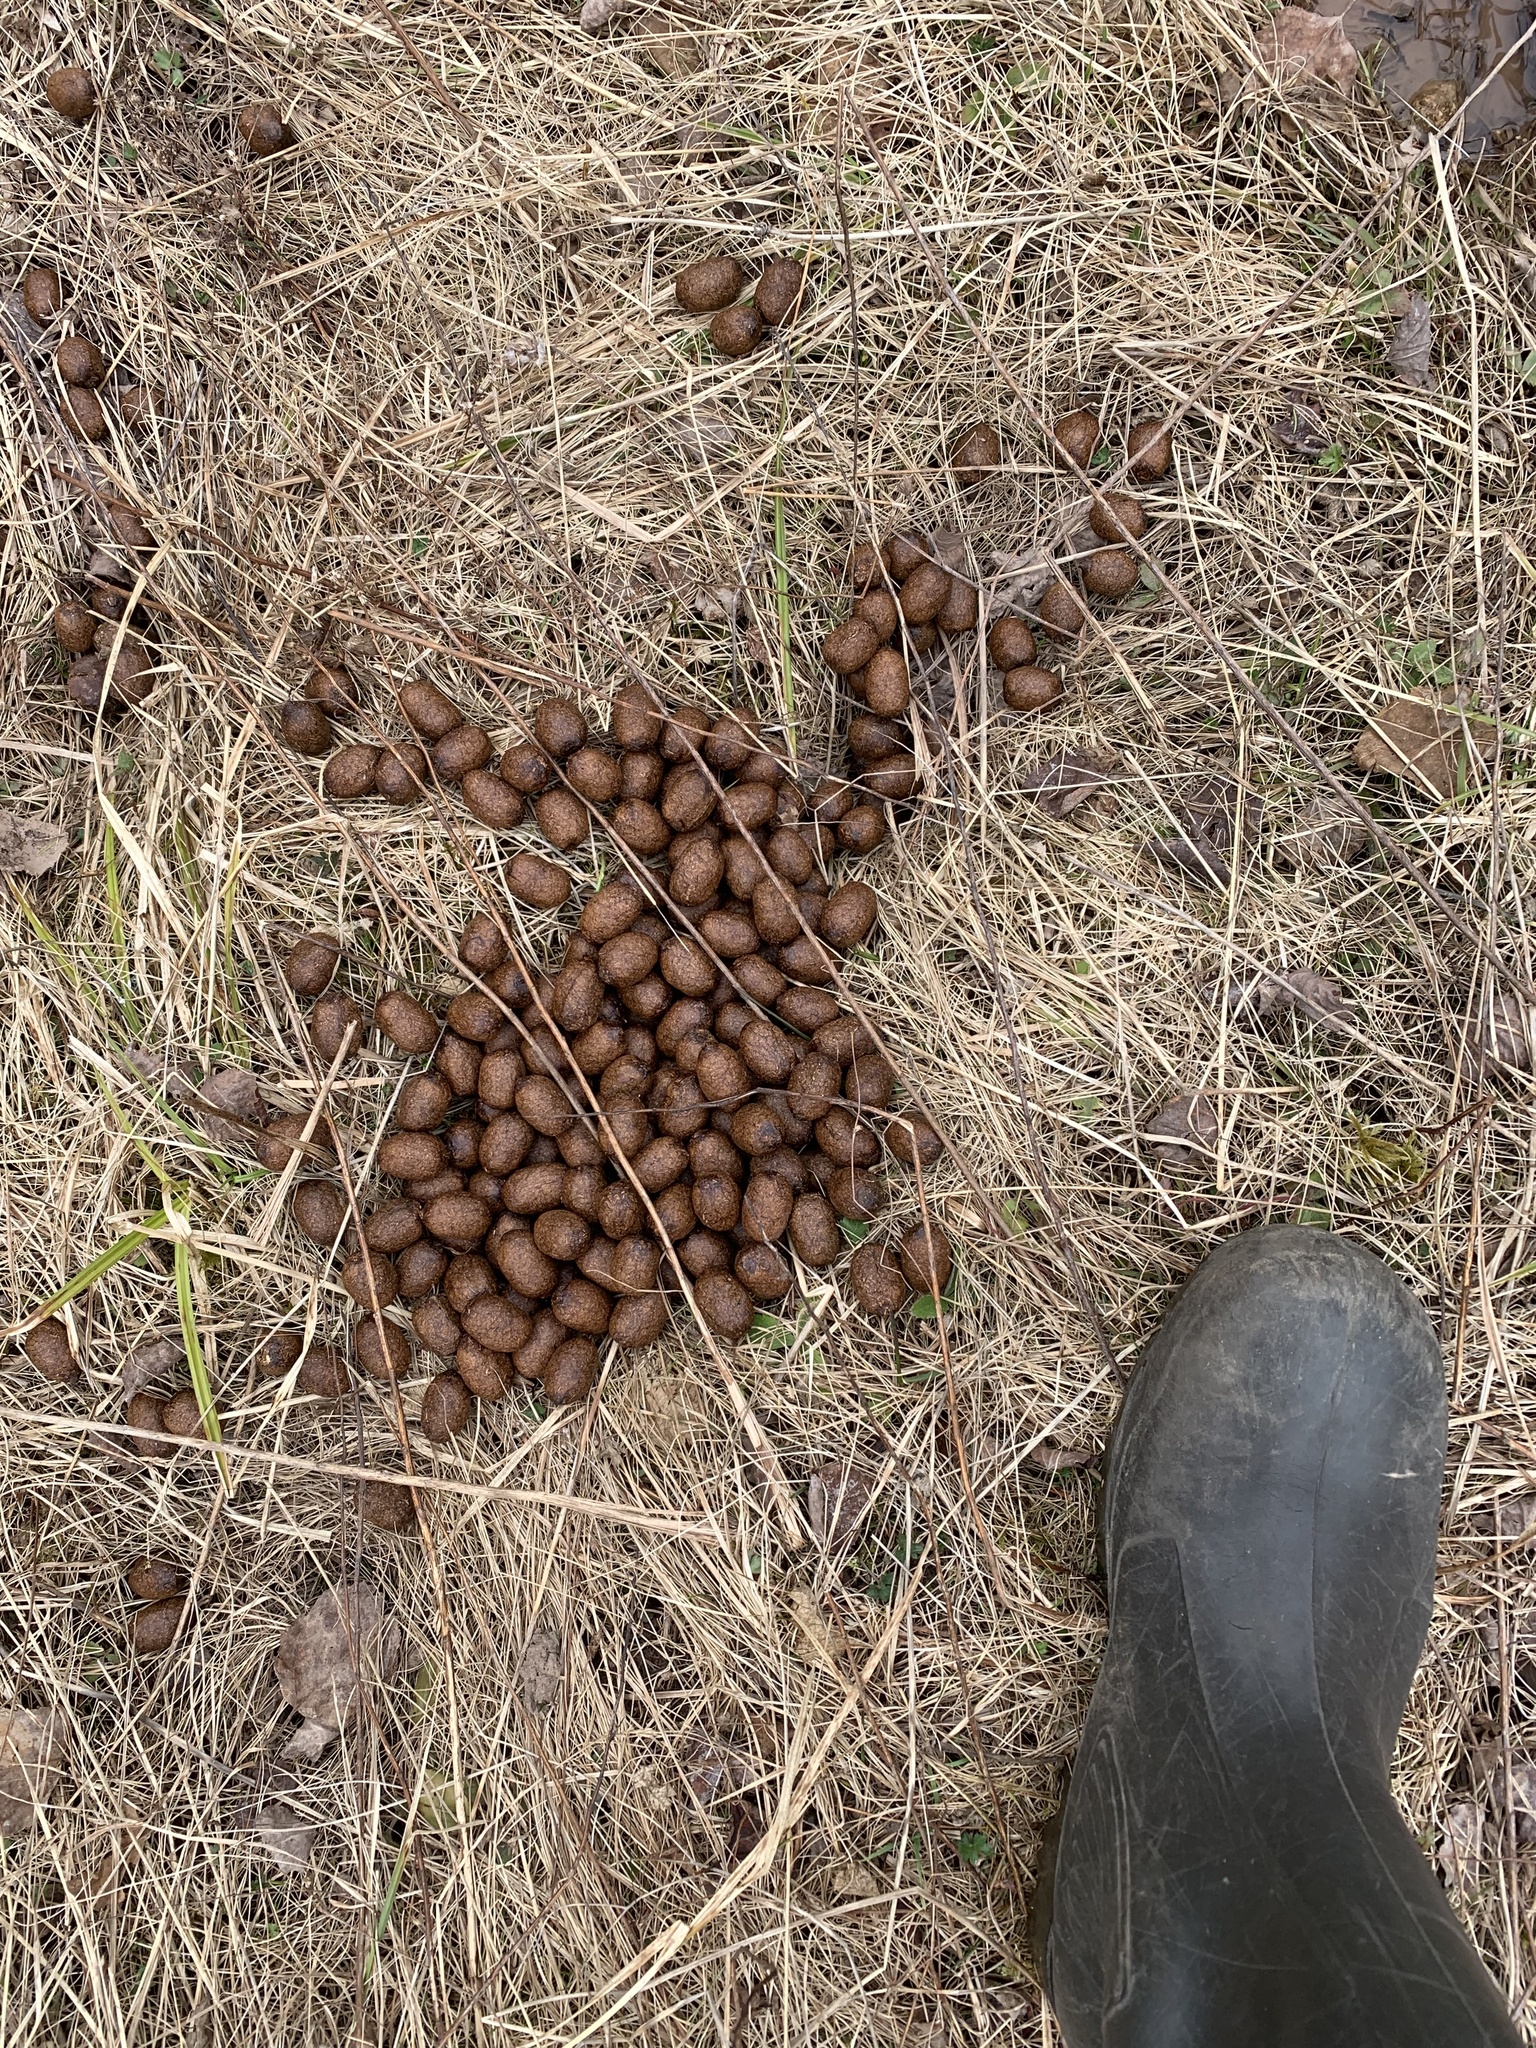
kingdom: Animalia
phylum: Chordata
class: Mammalia
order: Artiodactyla
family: Cervidae
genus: Alces
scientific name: Alces alces
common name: Moose
